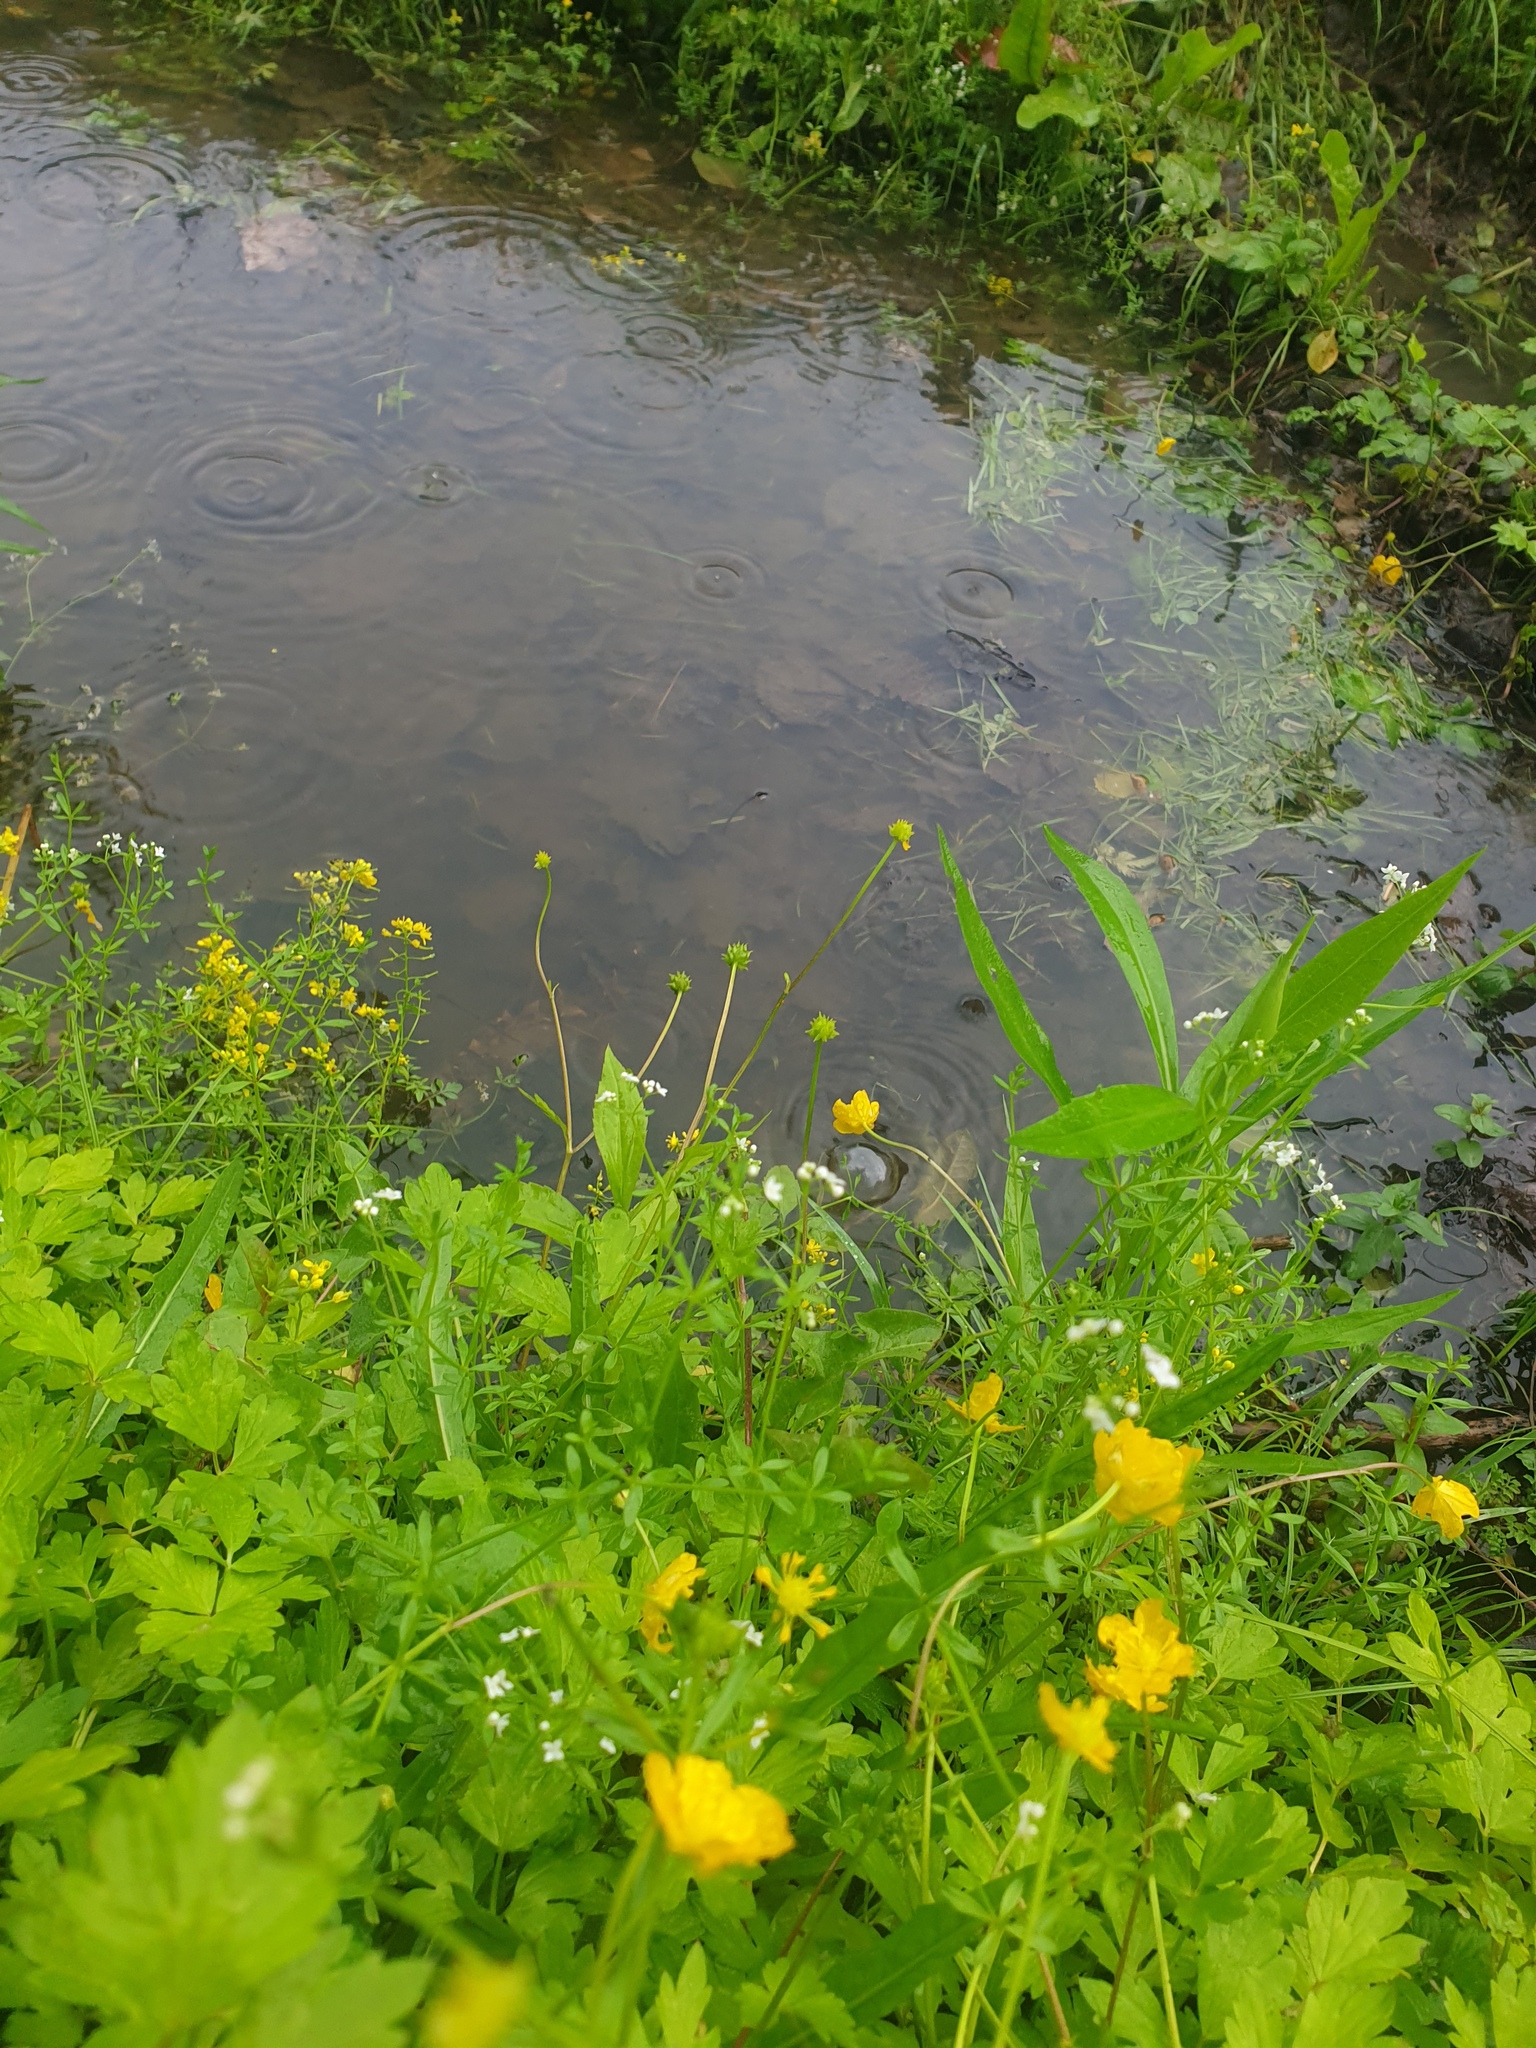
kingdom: Plantae
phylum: Tracheophyta
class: Magnoliopsida
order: Ranunculales
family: Ranunculaceae
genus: Ranunculus
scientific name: Ranunculus repens
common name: Creeping buttercup
